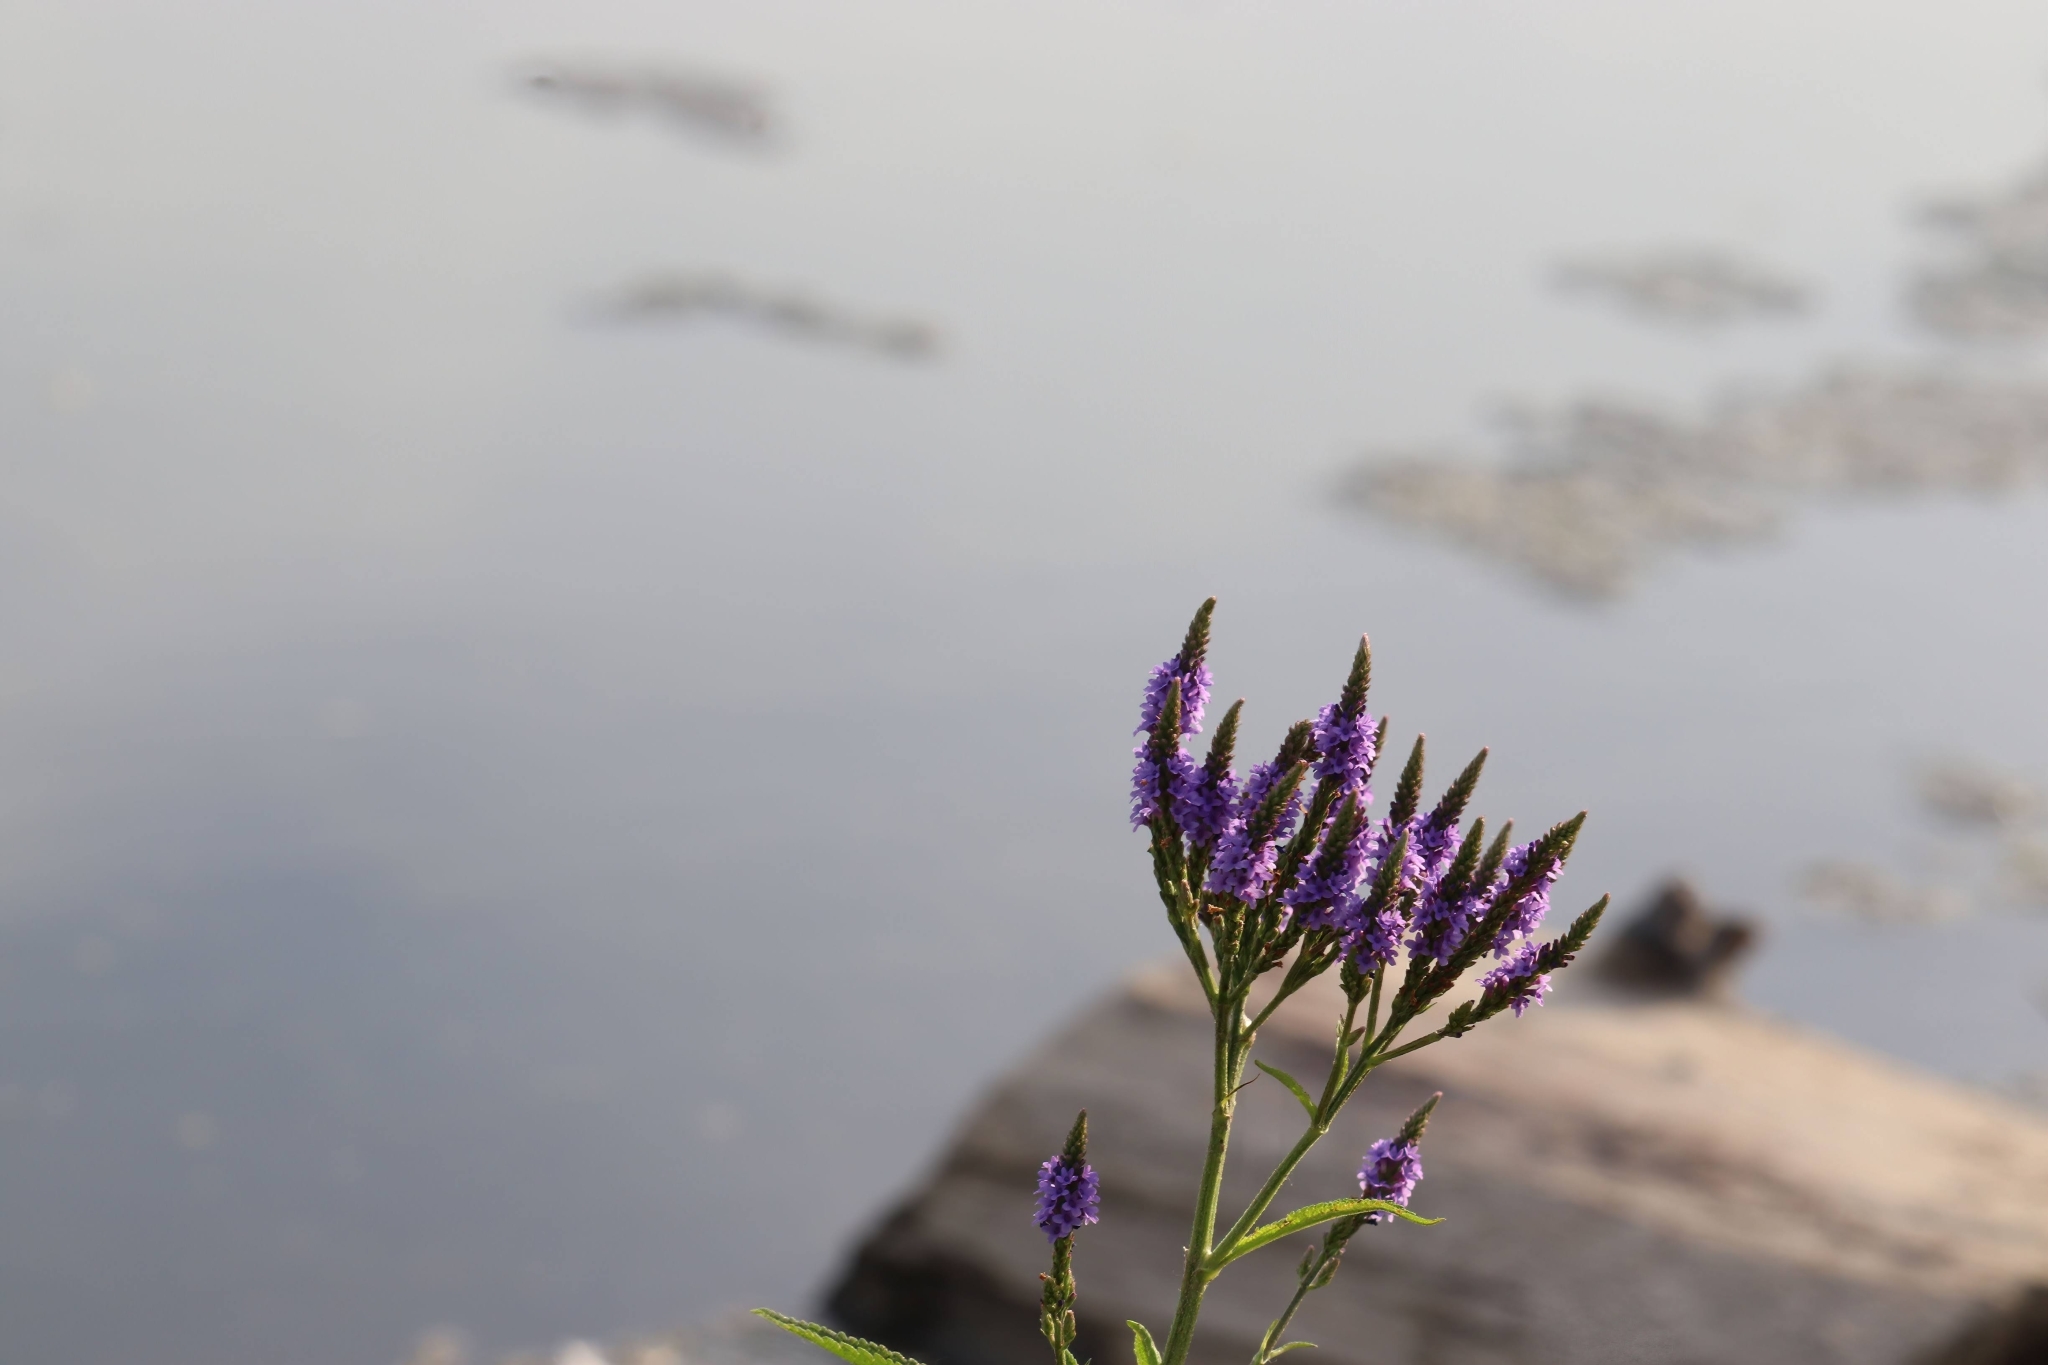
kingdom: Plantae
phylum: Tracheophyta
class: Magnoliopsida
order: Lamiales
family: Verbenaceae
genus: Verbena
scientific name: Verbena hastata
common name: American blue vervain
